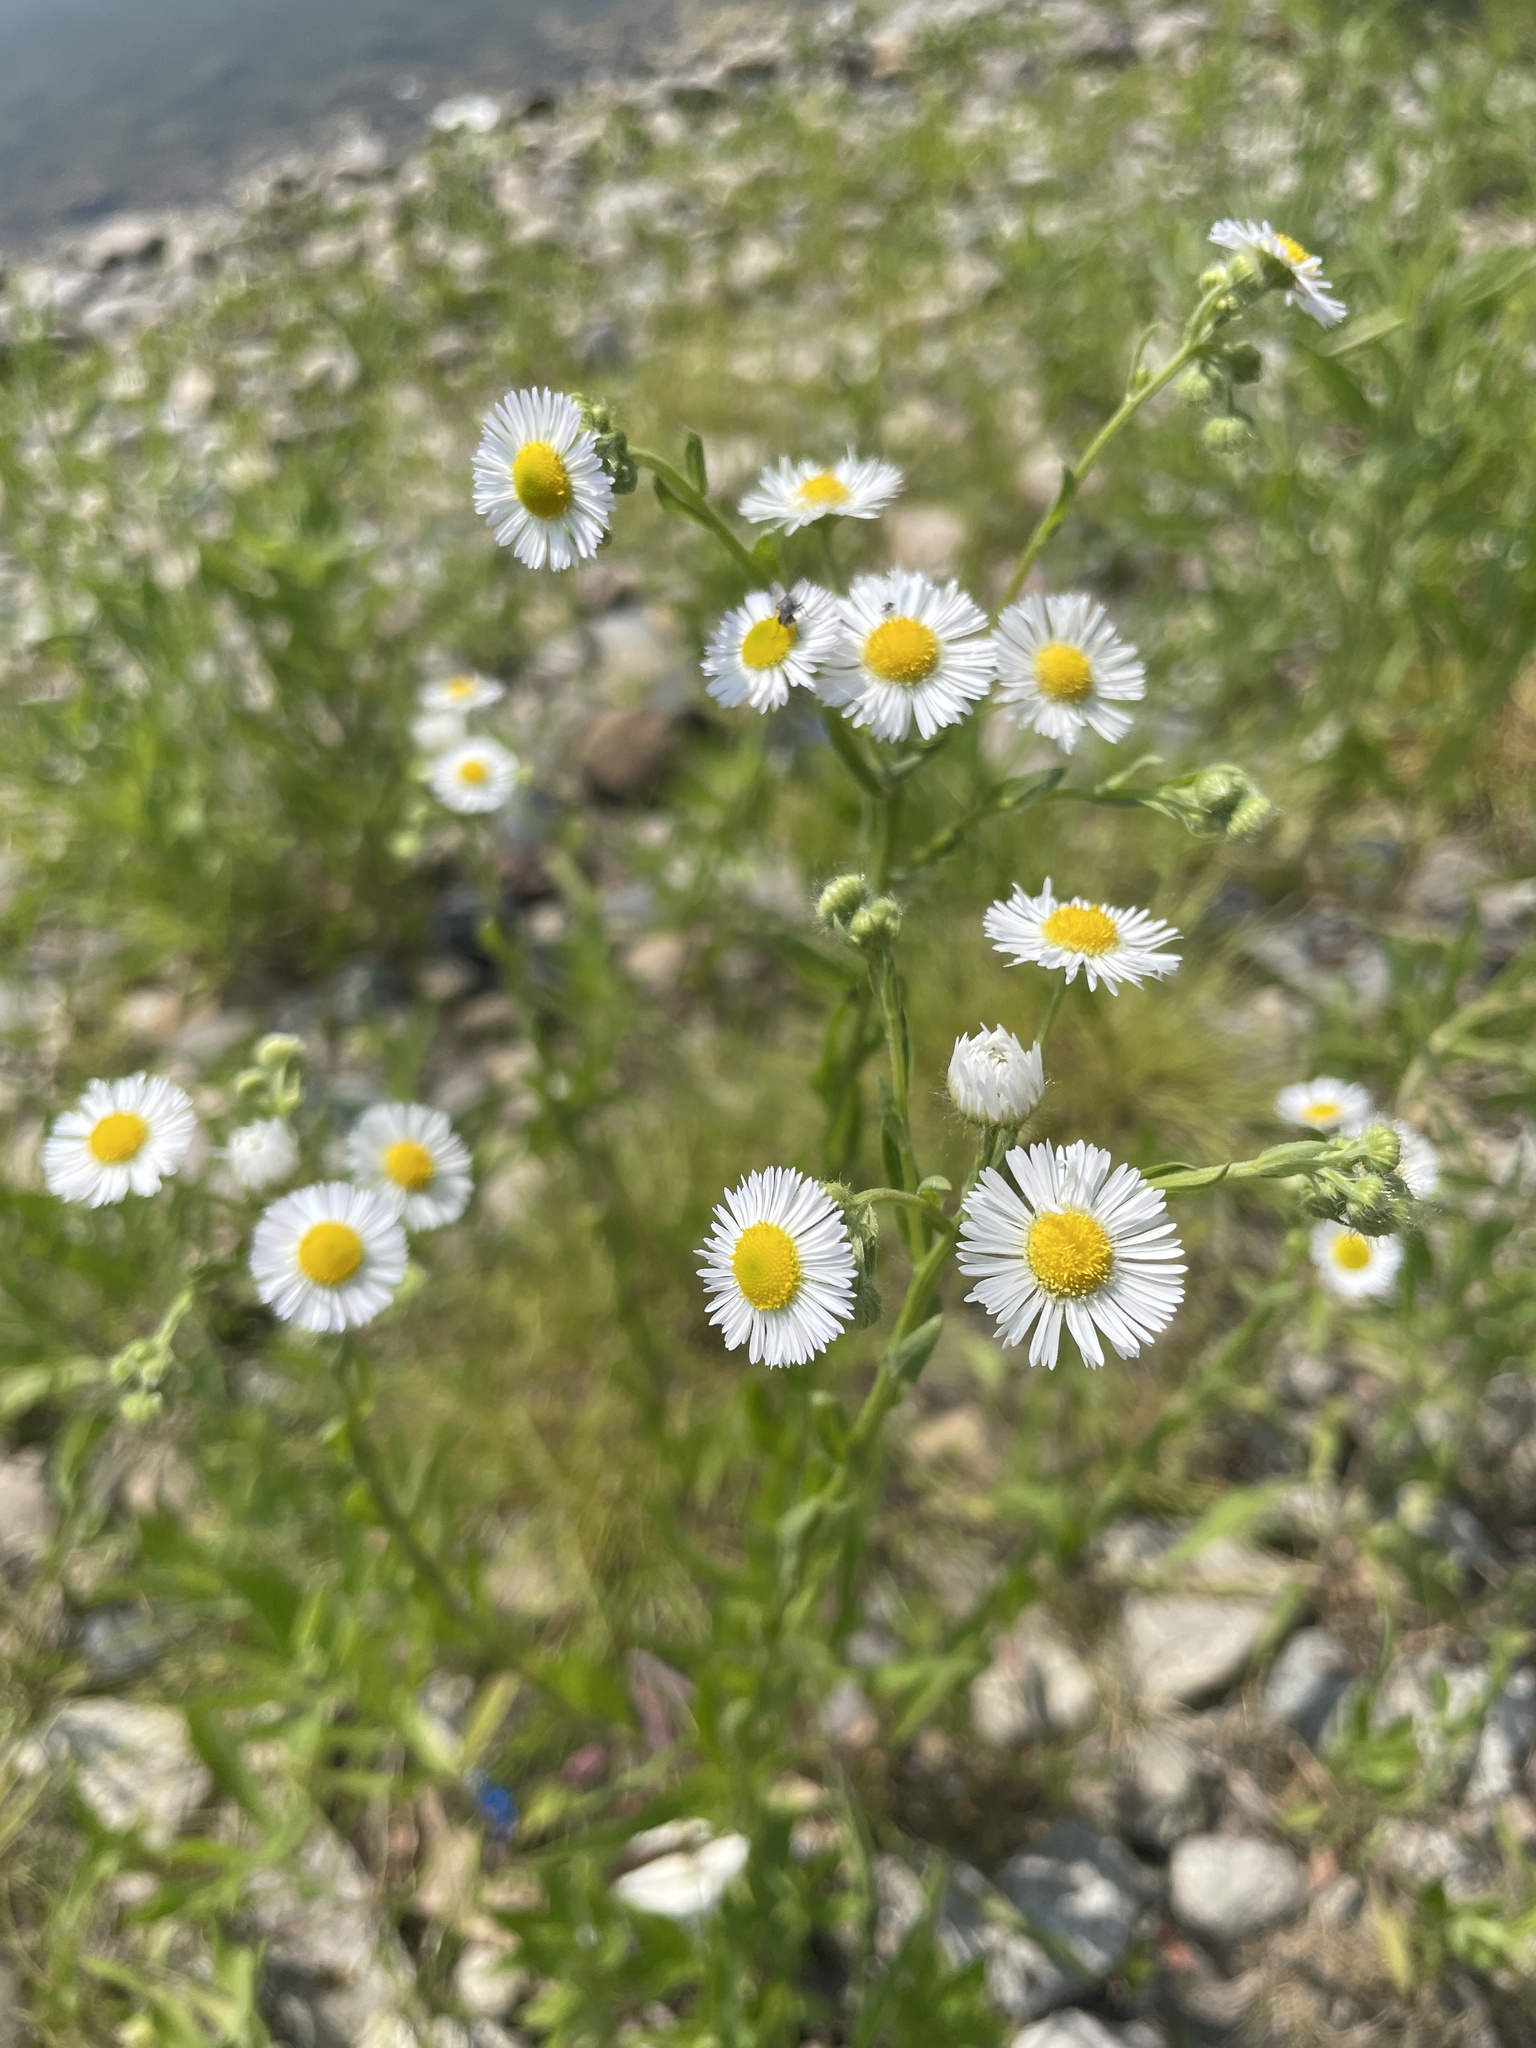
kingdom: Plantae
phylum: Tracheophyta
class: Magnoliopsida
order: Asterales
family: Asteraceae
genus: Erigeron
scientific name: Erigeron annuus
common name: Tall fleabane
